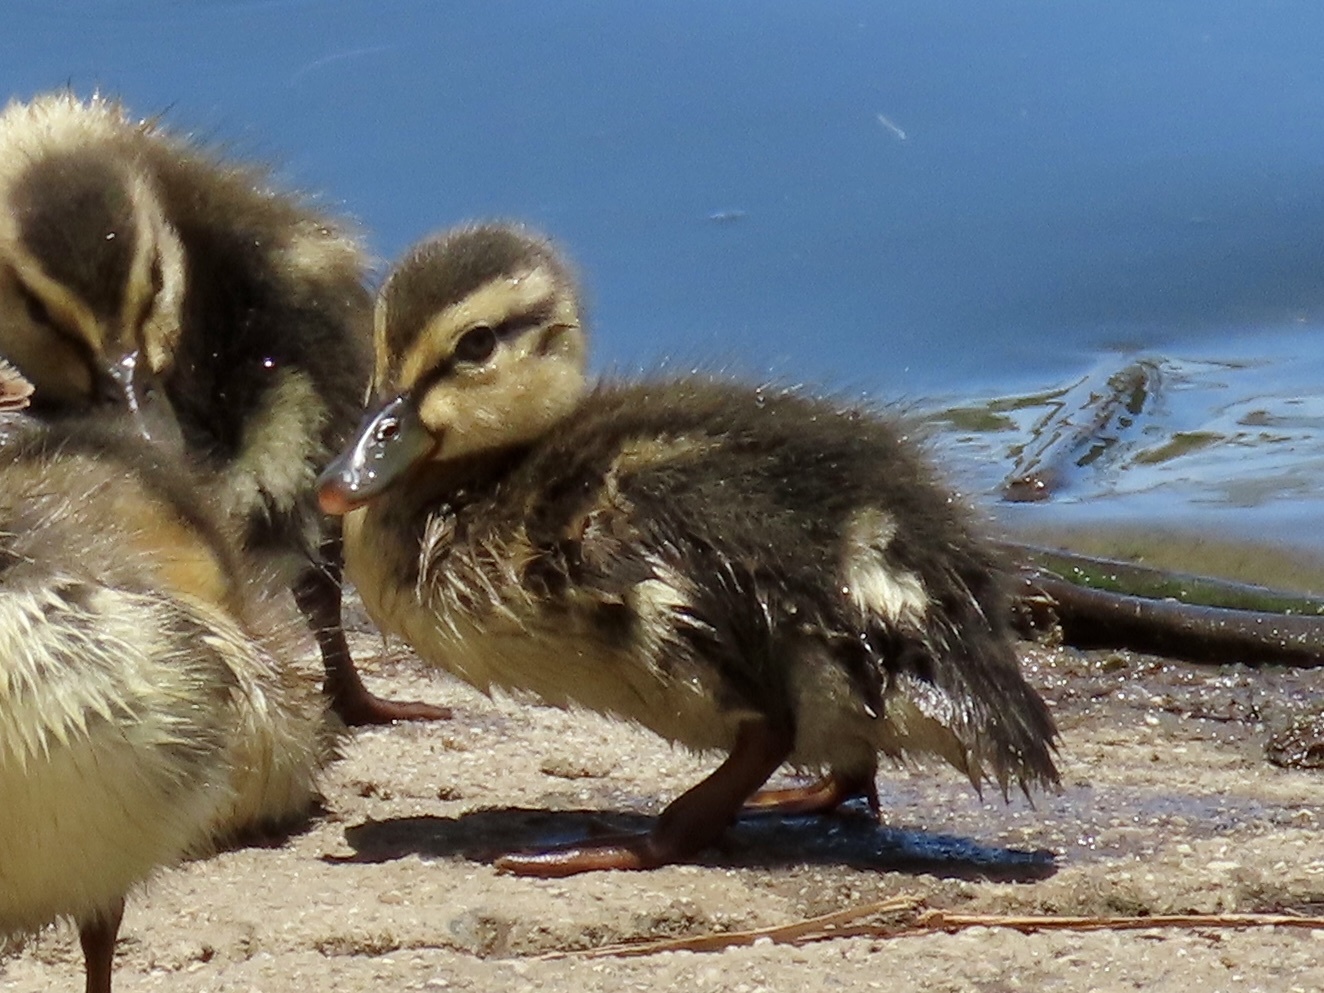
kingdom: Animalia
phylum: Chordata
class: Aves
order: Anseriformes
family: Anatidae
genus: Anas
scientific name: Anas platyrhynchos
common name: Mallard
